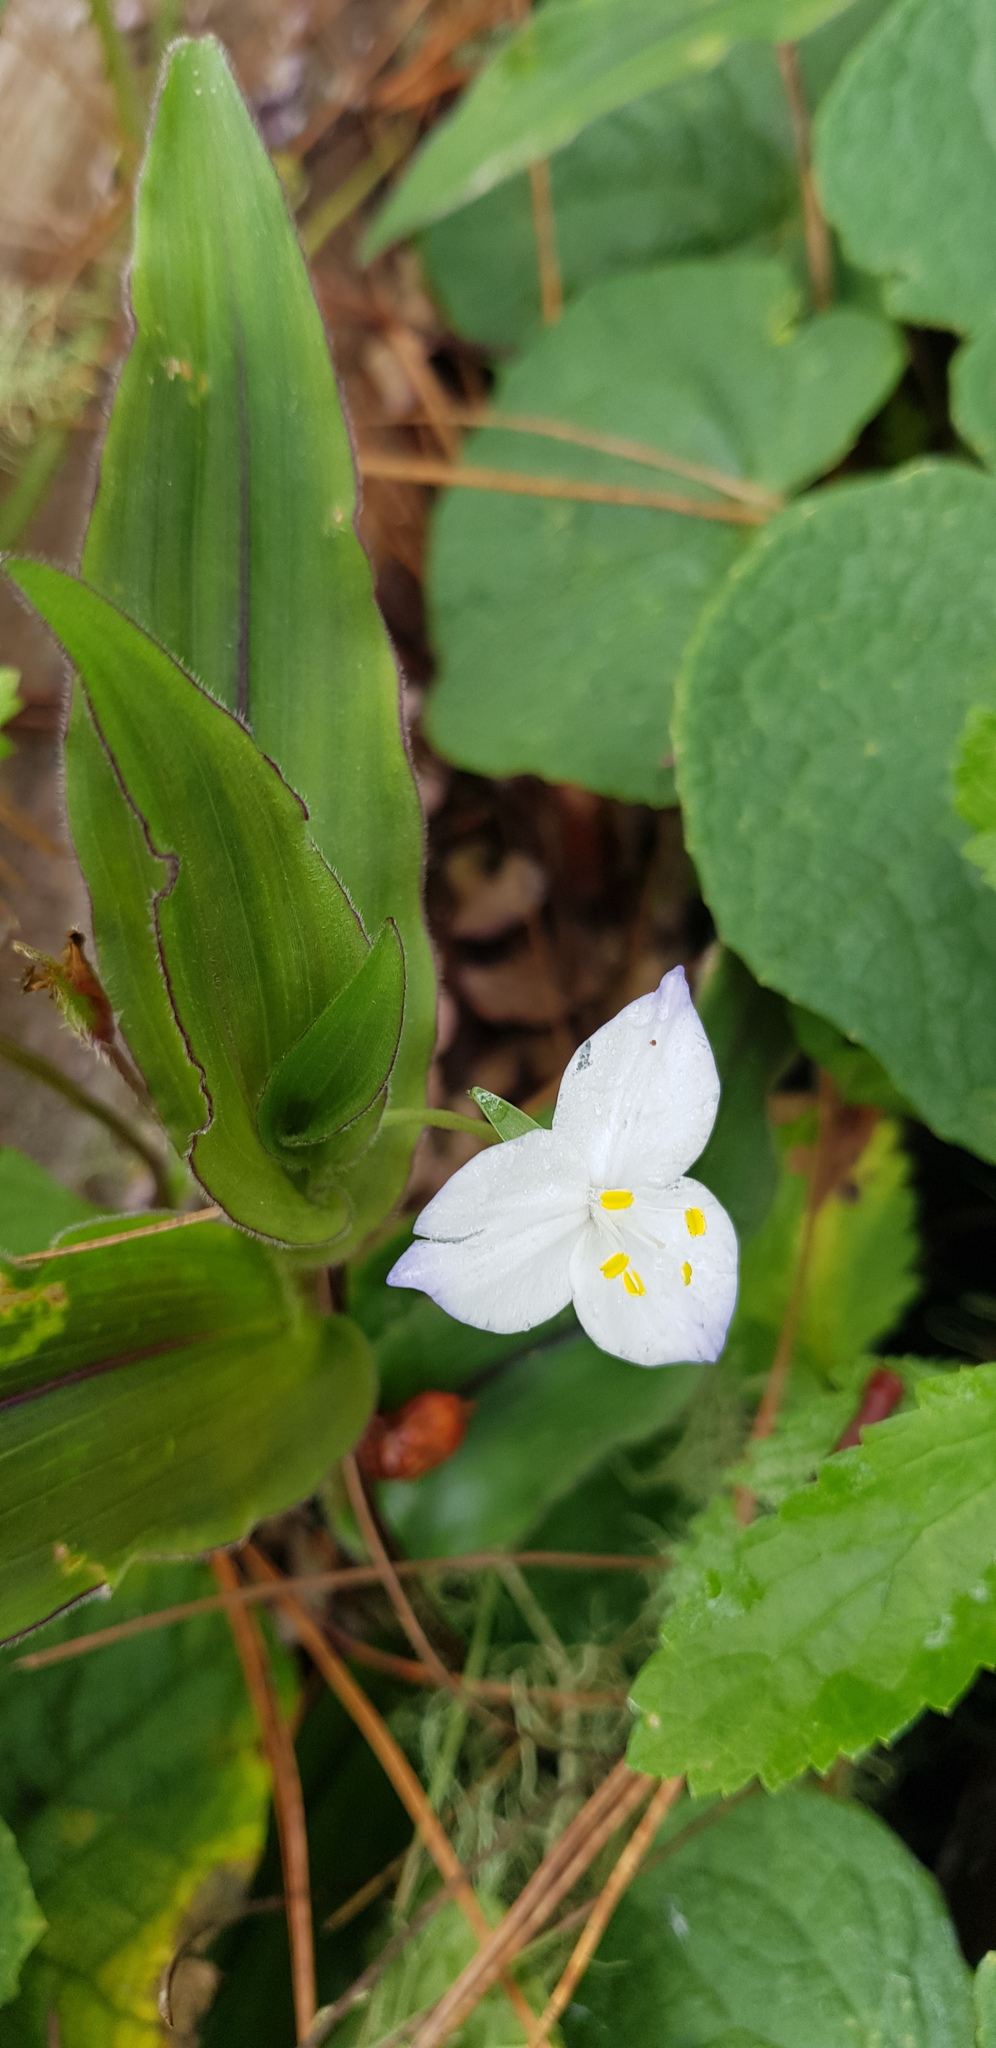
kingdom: Plantae
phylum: Tracheophyta
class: Liliopsida
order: Commelinales
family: Commelinaceae
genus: Matudanthus
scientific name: Matudanthus nanus
